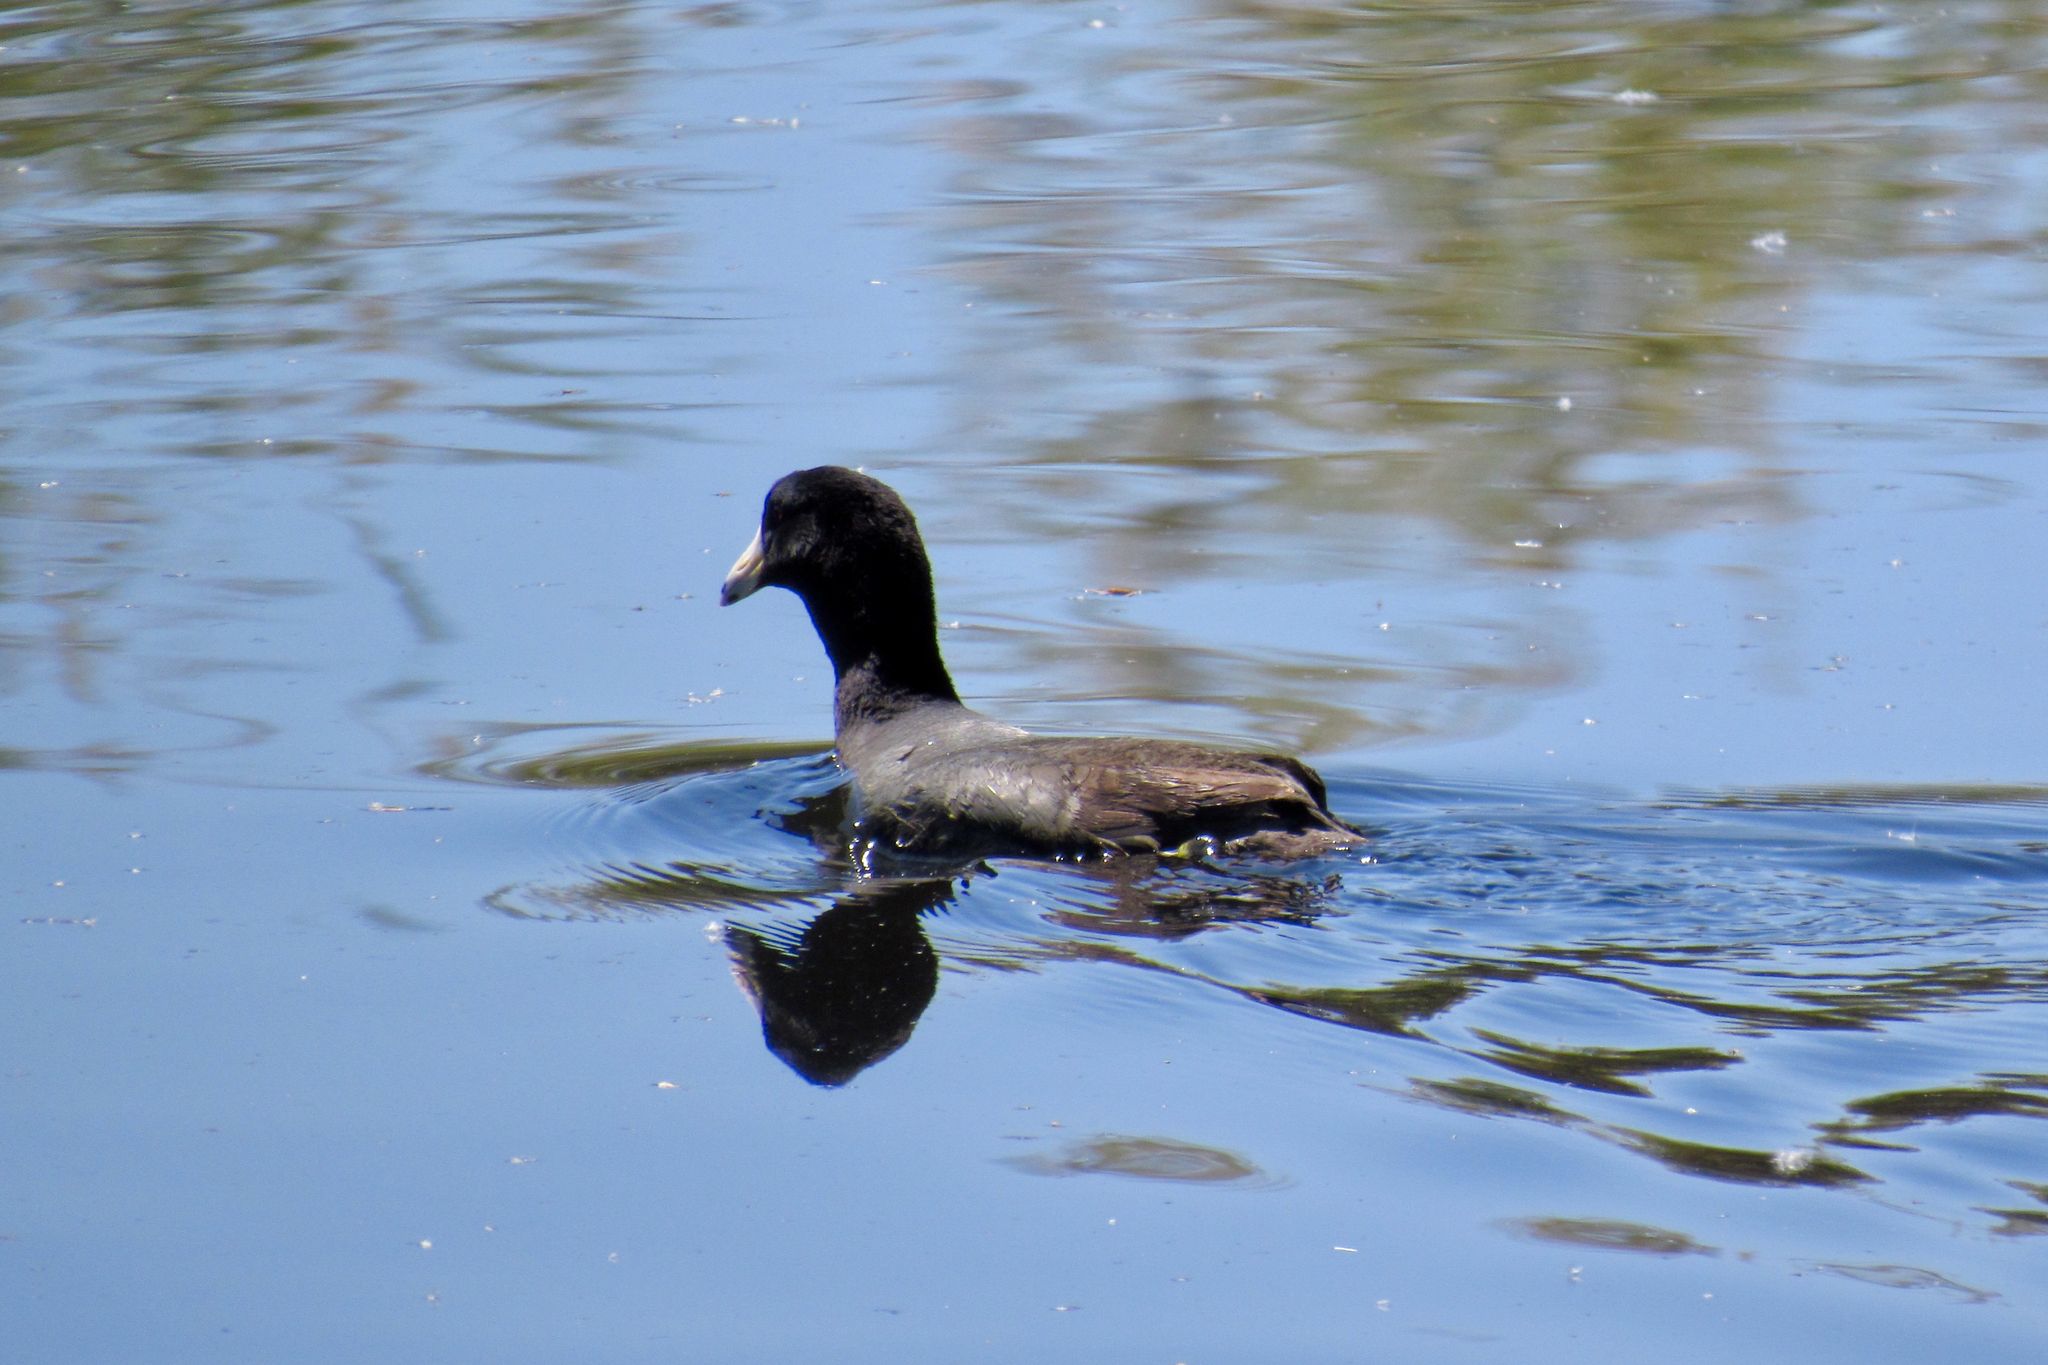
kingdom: Animalia
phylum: Chordata
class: Aves
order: Gruiformes
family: Rallidae
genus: Fulica
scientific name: Fulica americana
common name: American coot
